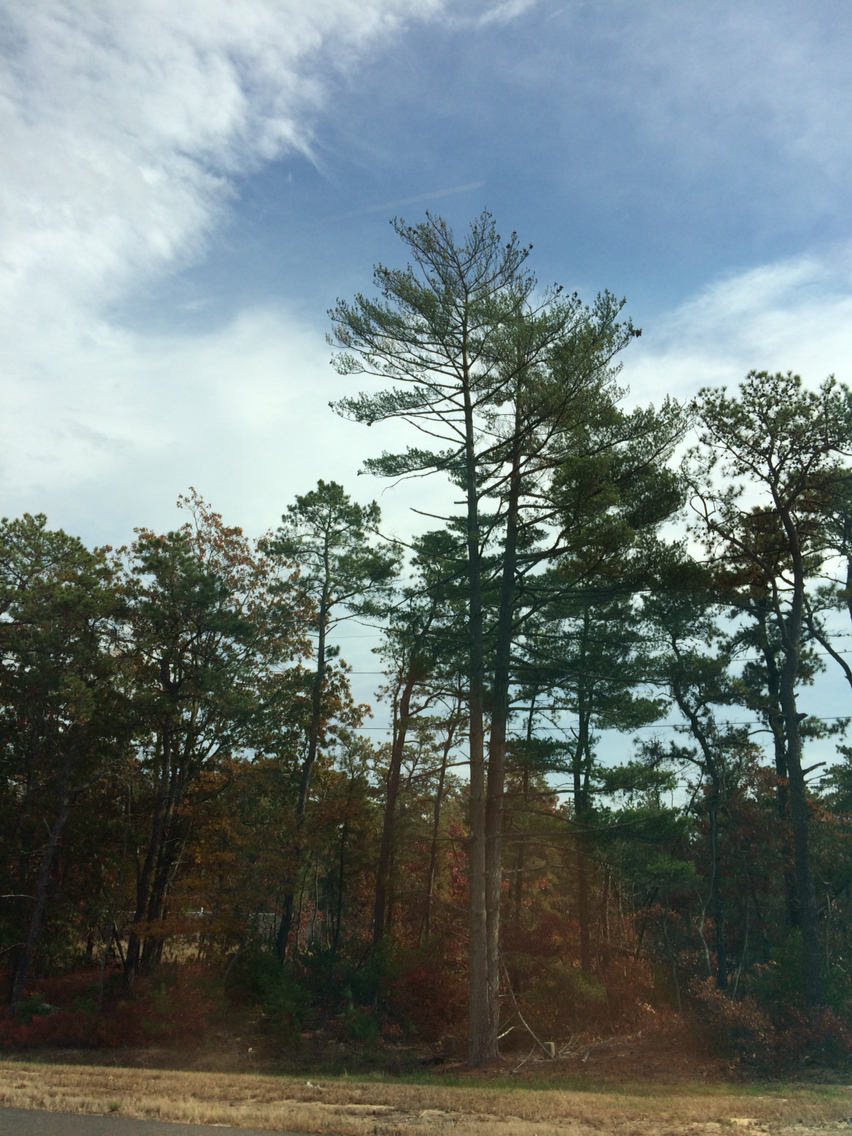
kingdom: Plantae
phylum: Tracheophyta
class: Pinopsida
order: Pinales
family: Pinaceae
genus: Pinus
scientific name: Pinus strobus
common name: Weymouth pine
